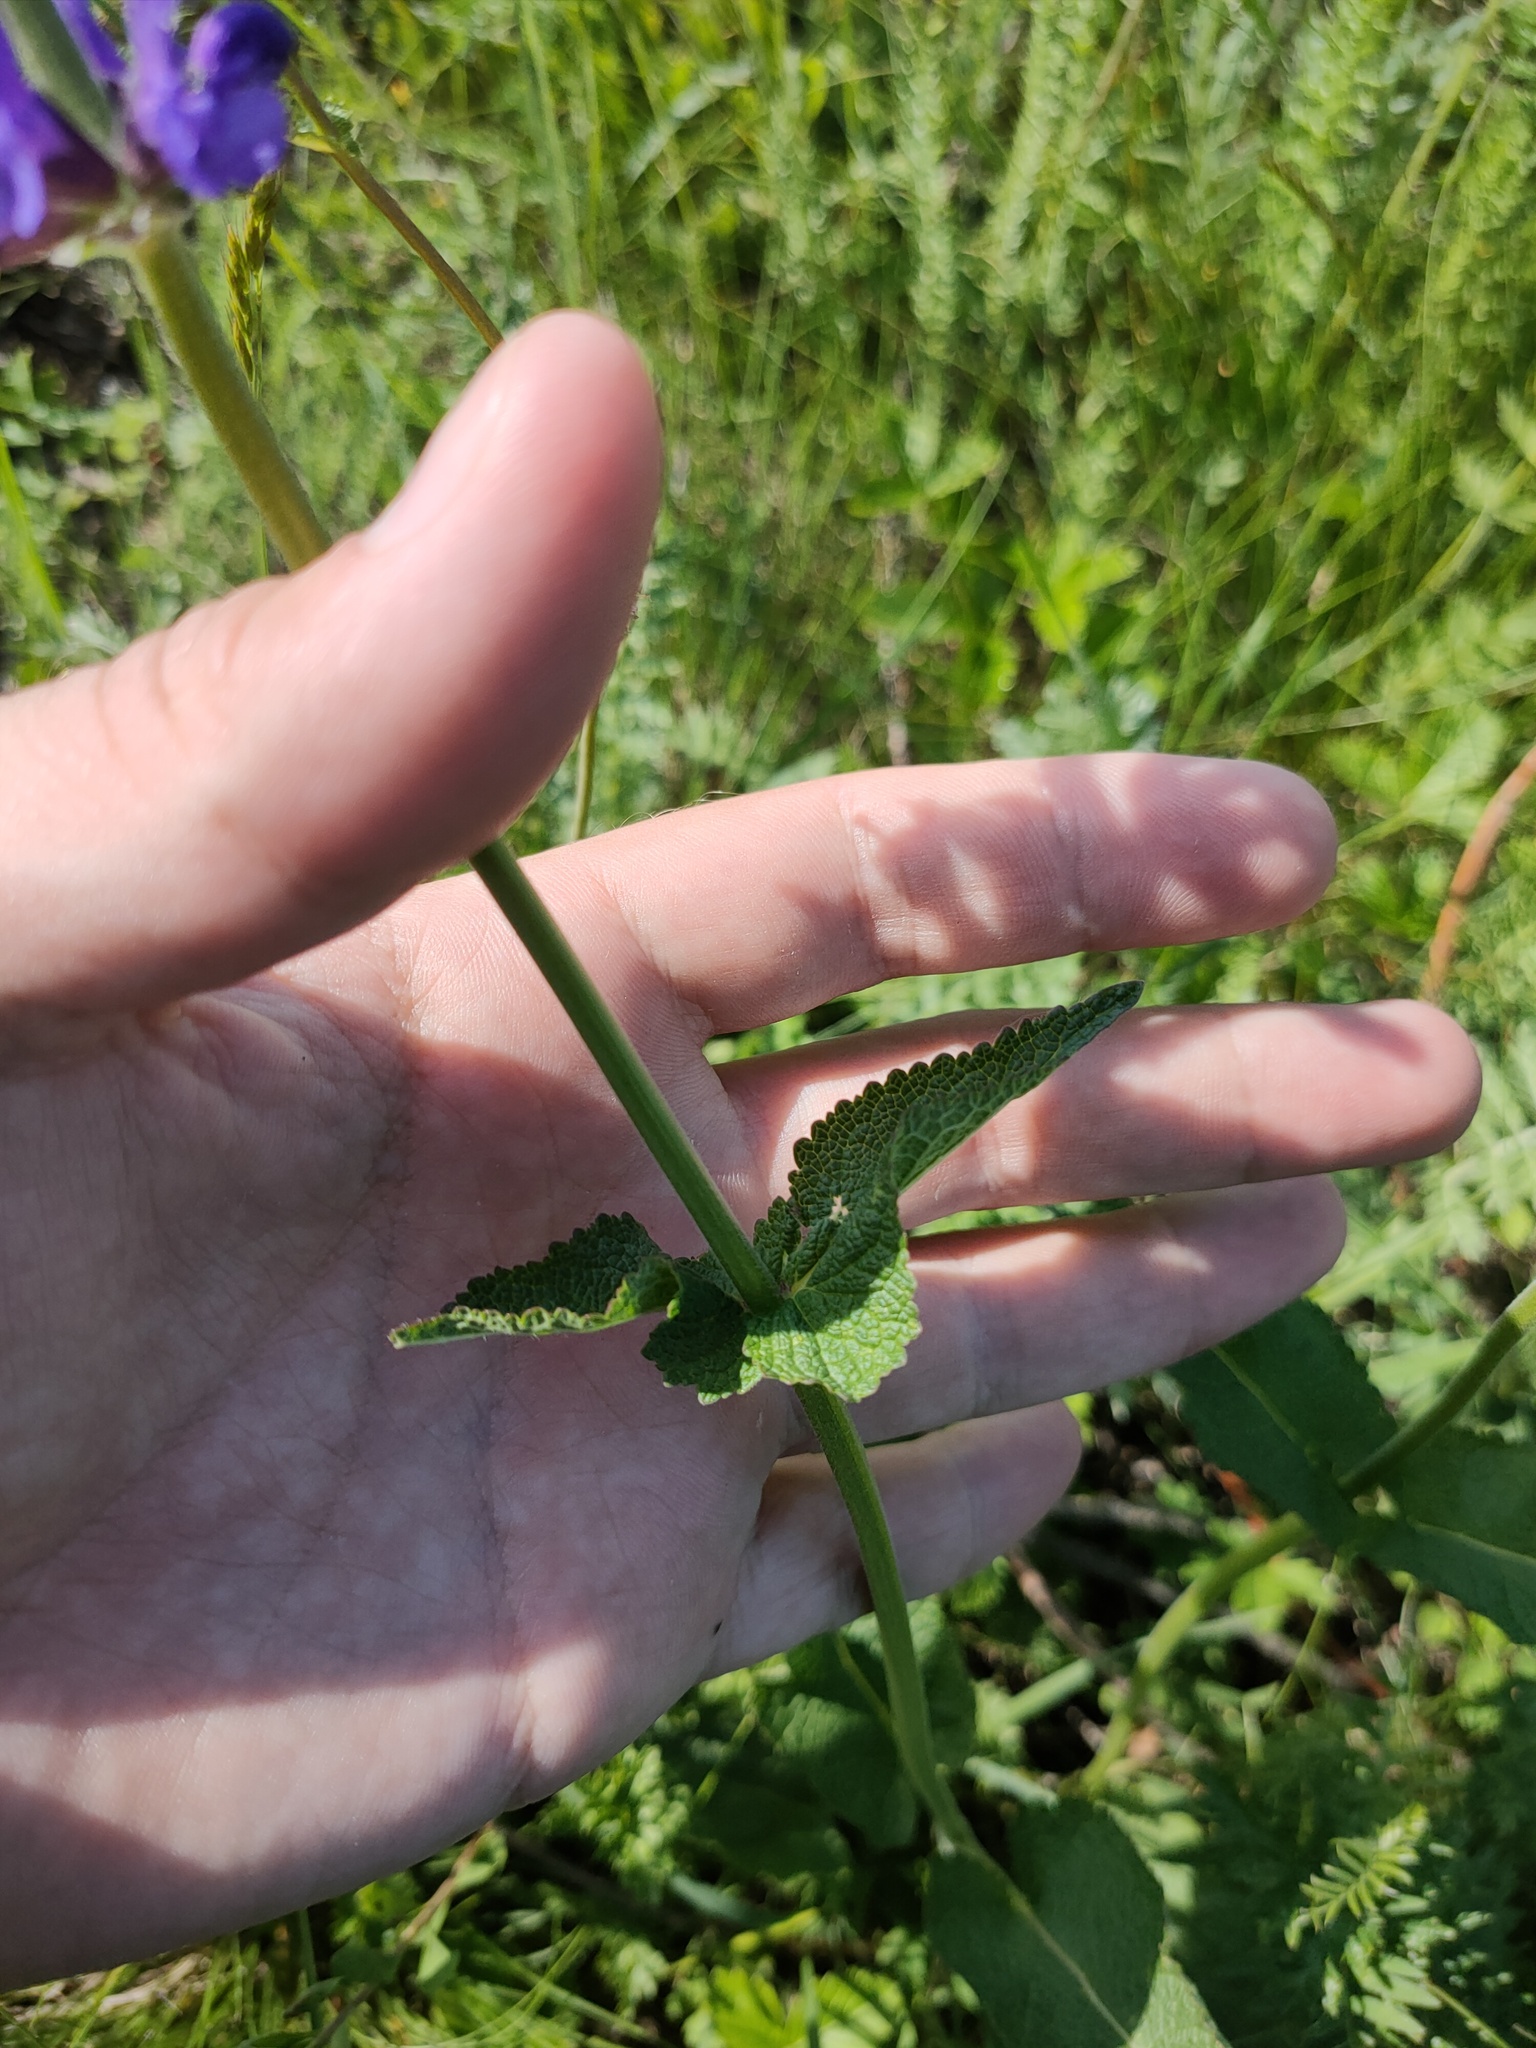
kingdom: Plantae
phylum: Tracheophyta
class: Magnoliopsida
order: Lamiales
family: Lamiaceae
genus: Salvia
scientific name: Salvia dumetorum
